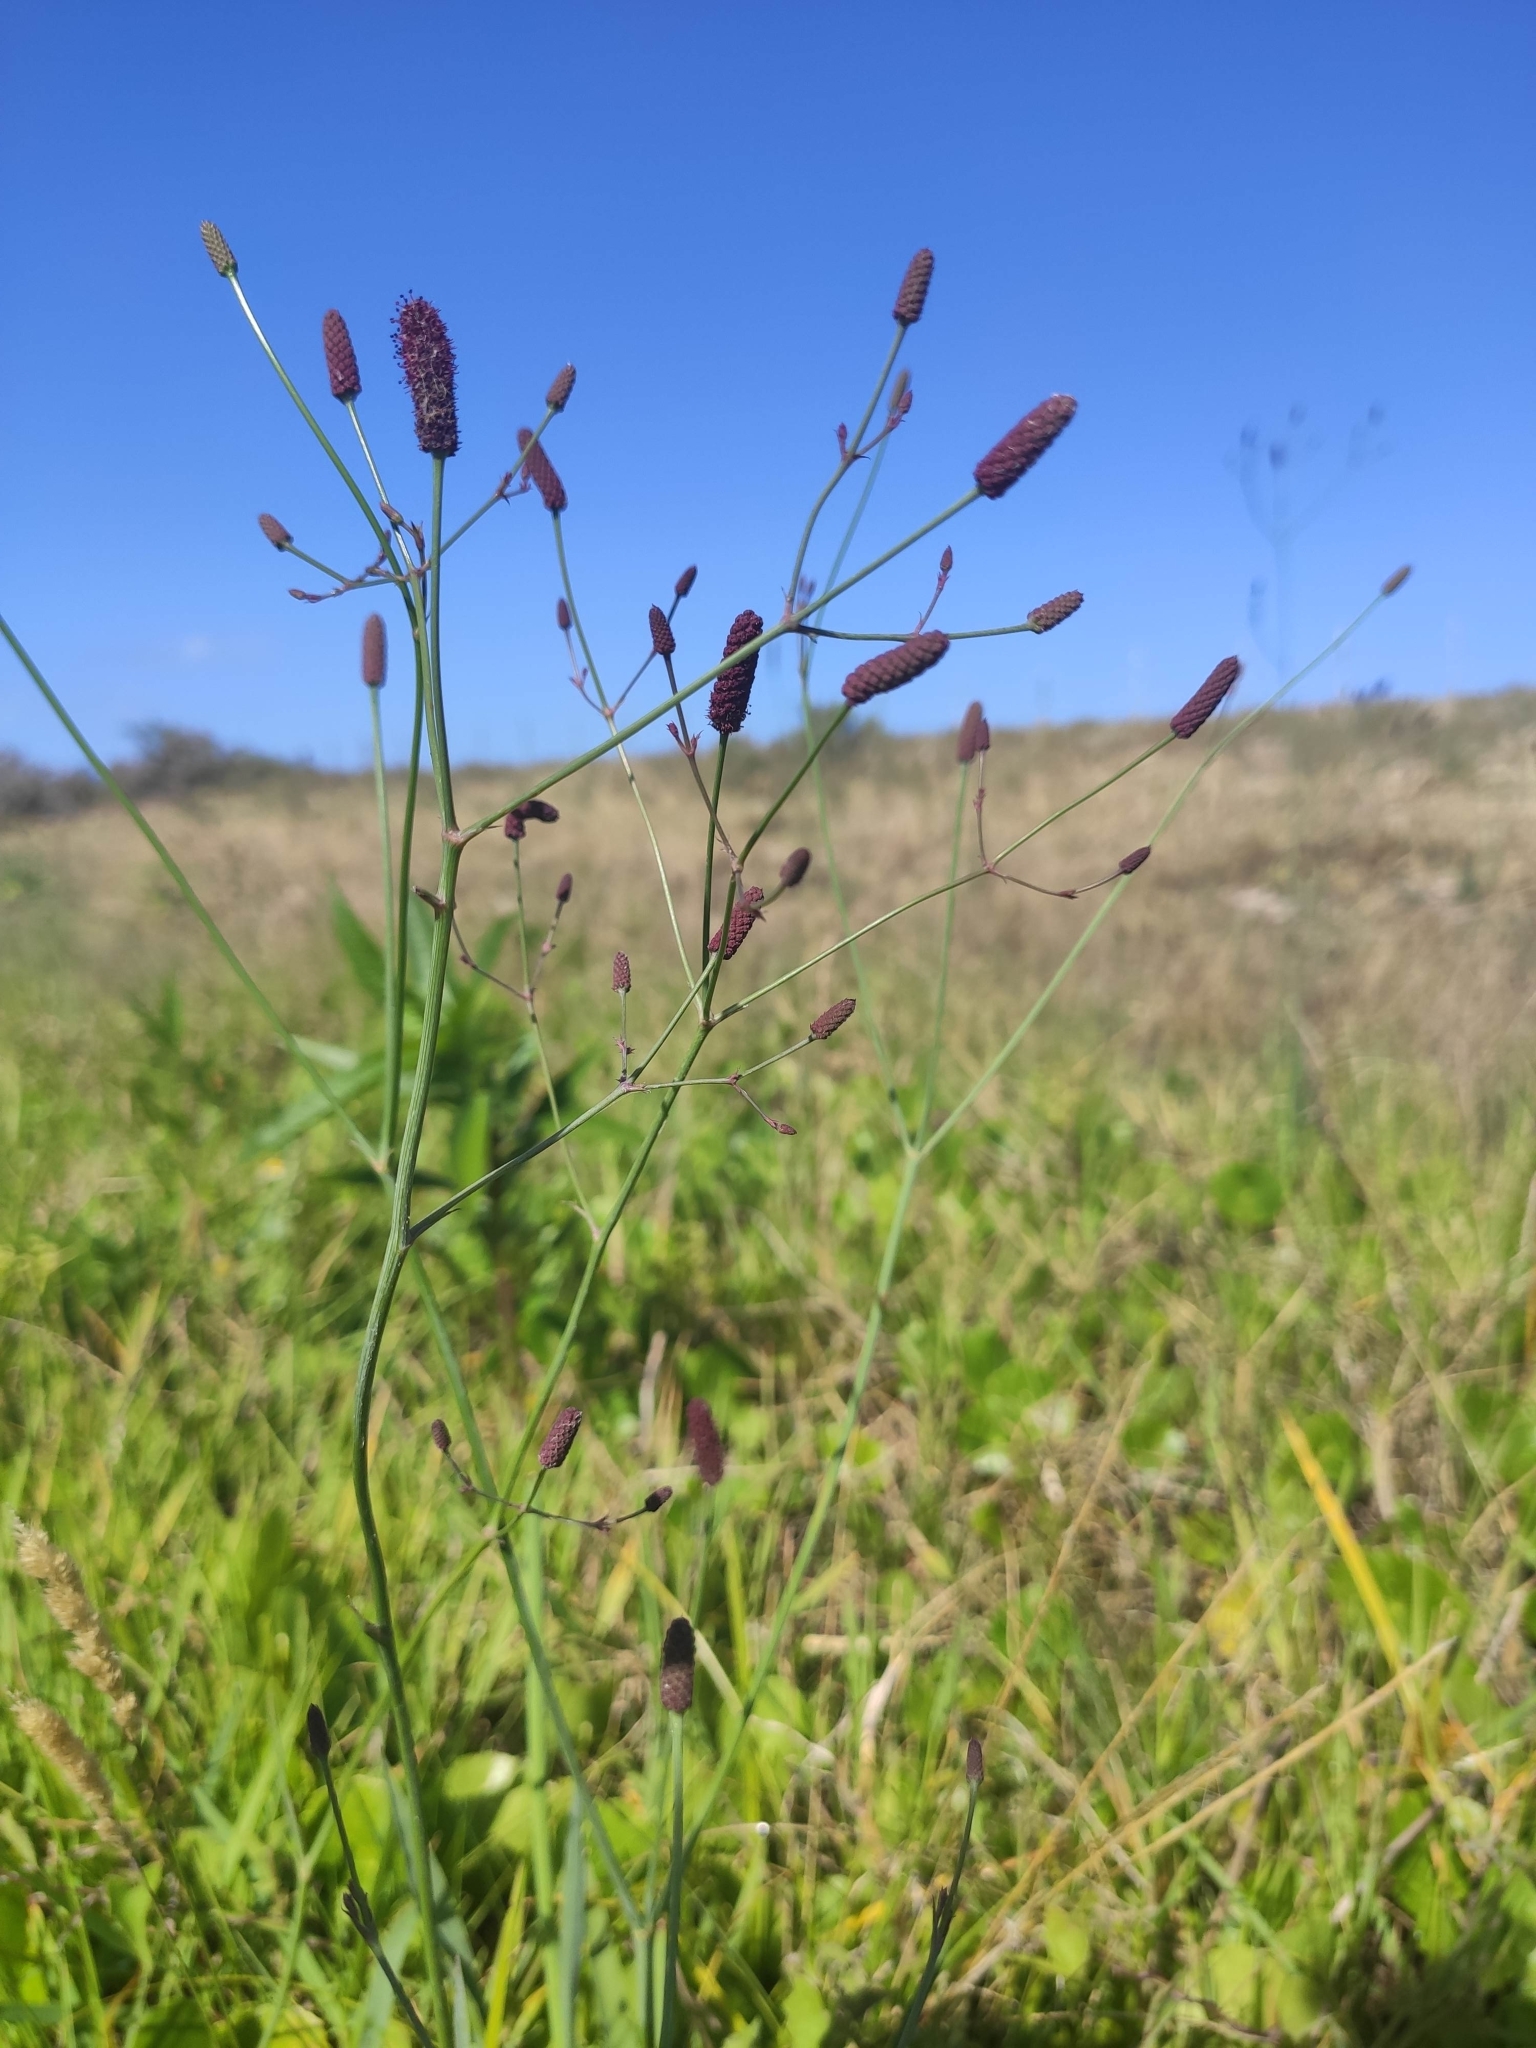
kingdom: Plantae
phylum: Tracheophyta
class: Magnoliopsida
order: Apiales
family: Apiaceae
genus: Eryngium
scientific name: Eryngium ebracteatum
